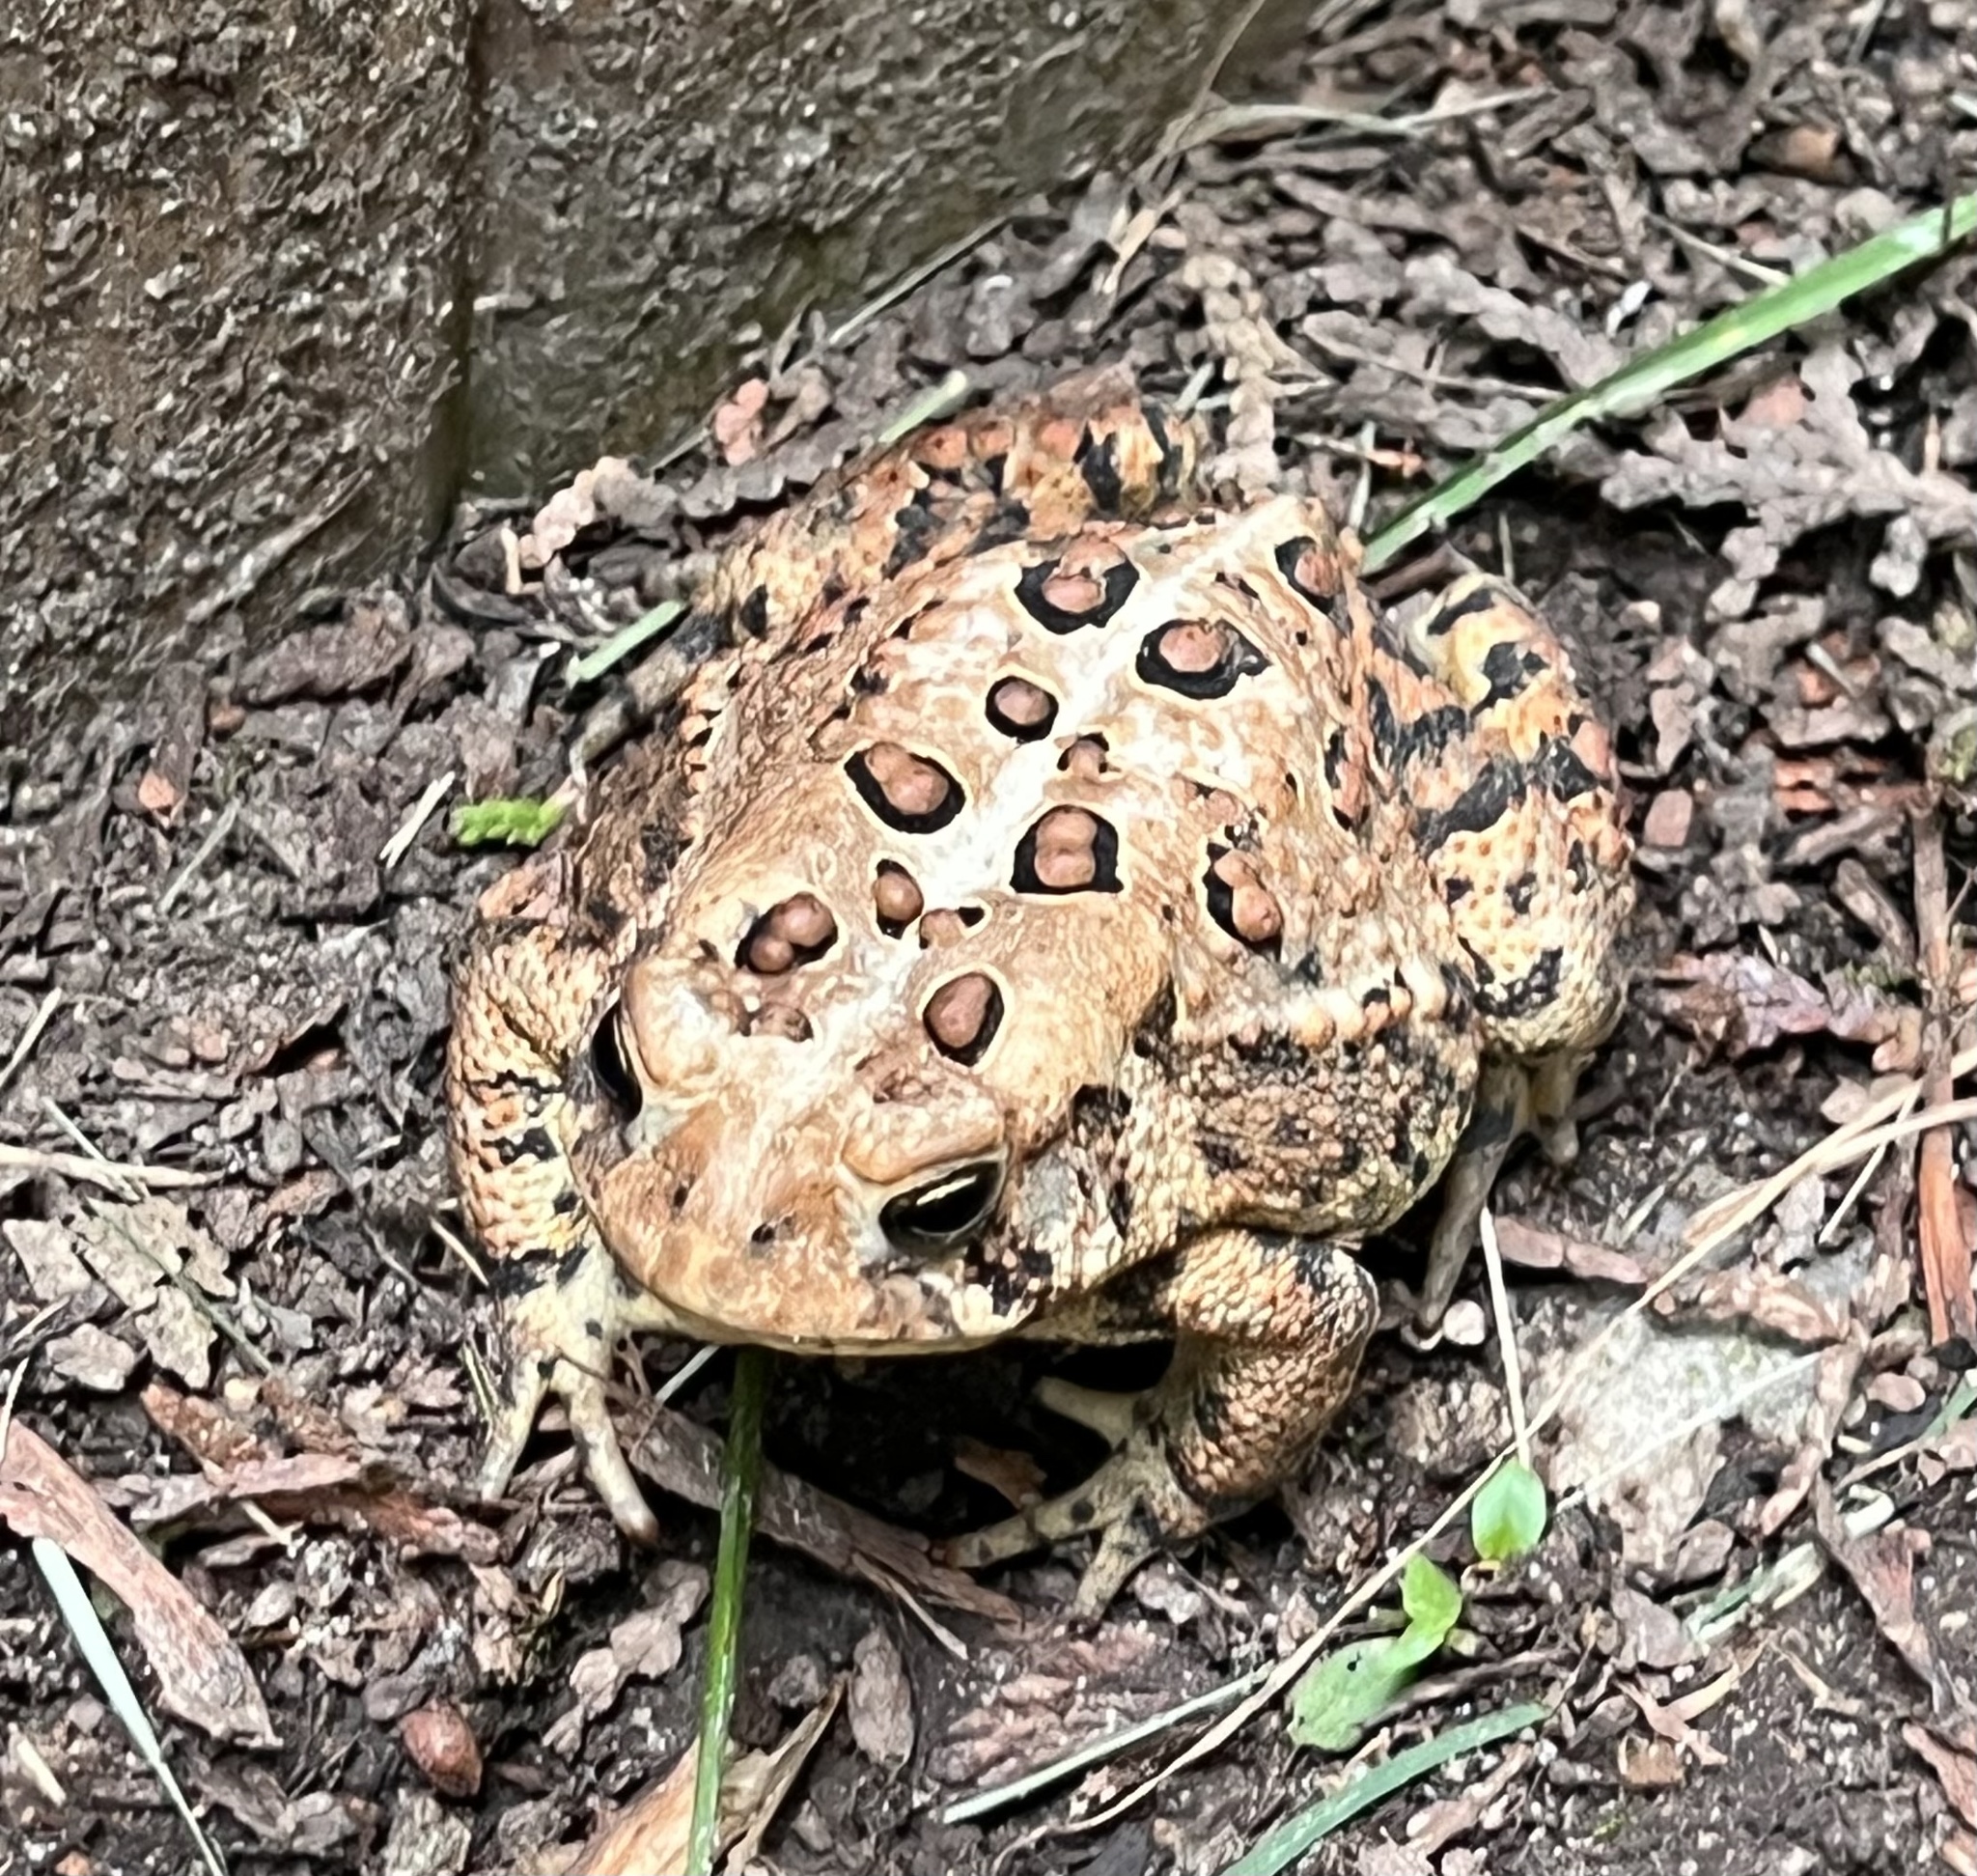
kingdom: Animalia
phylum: Chordata
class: Amphibia
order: Anura
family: Bufonidae
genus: Anaxyrus
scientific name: Anaxyrus americanus
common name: American toad
